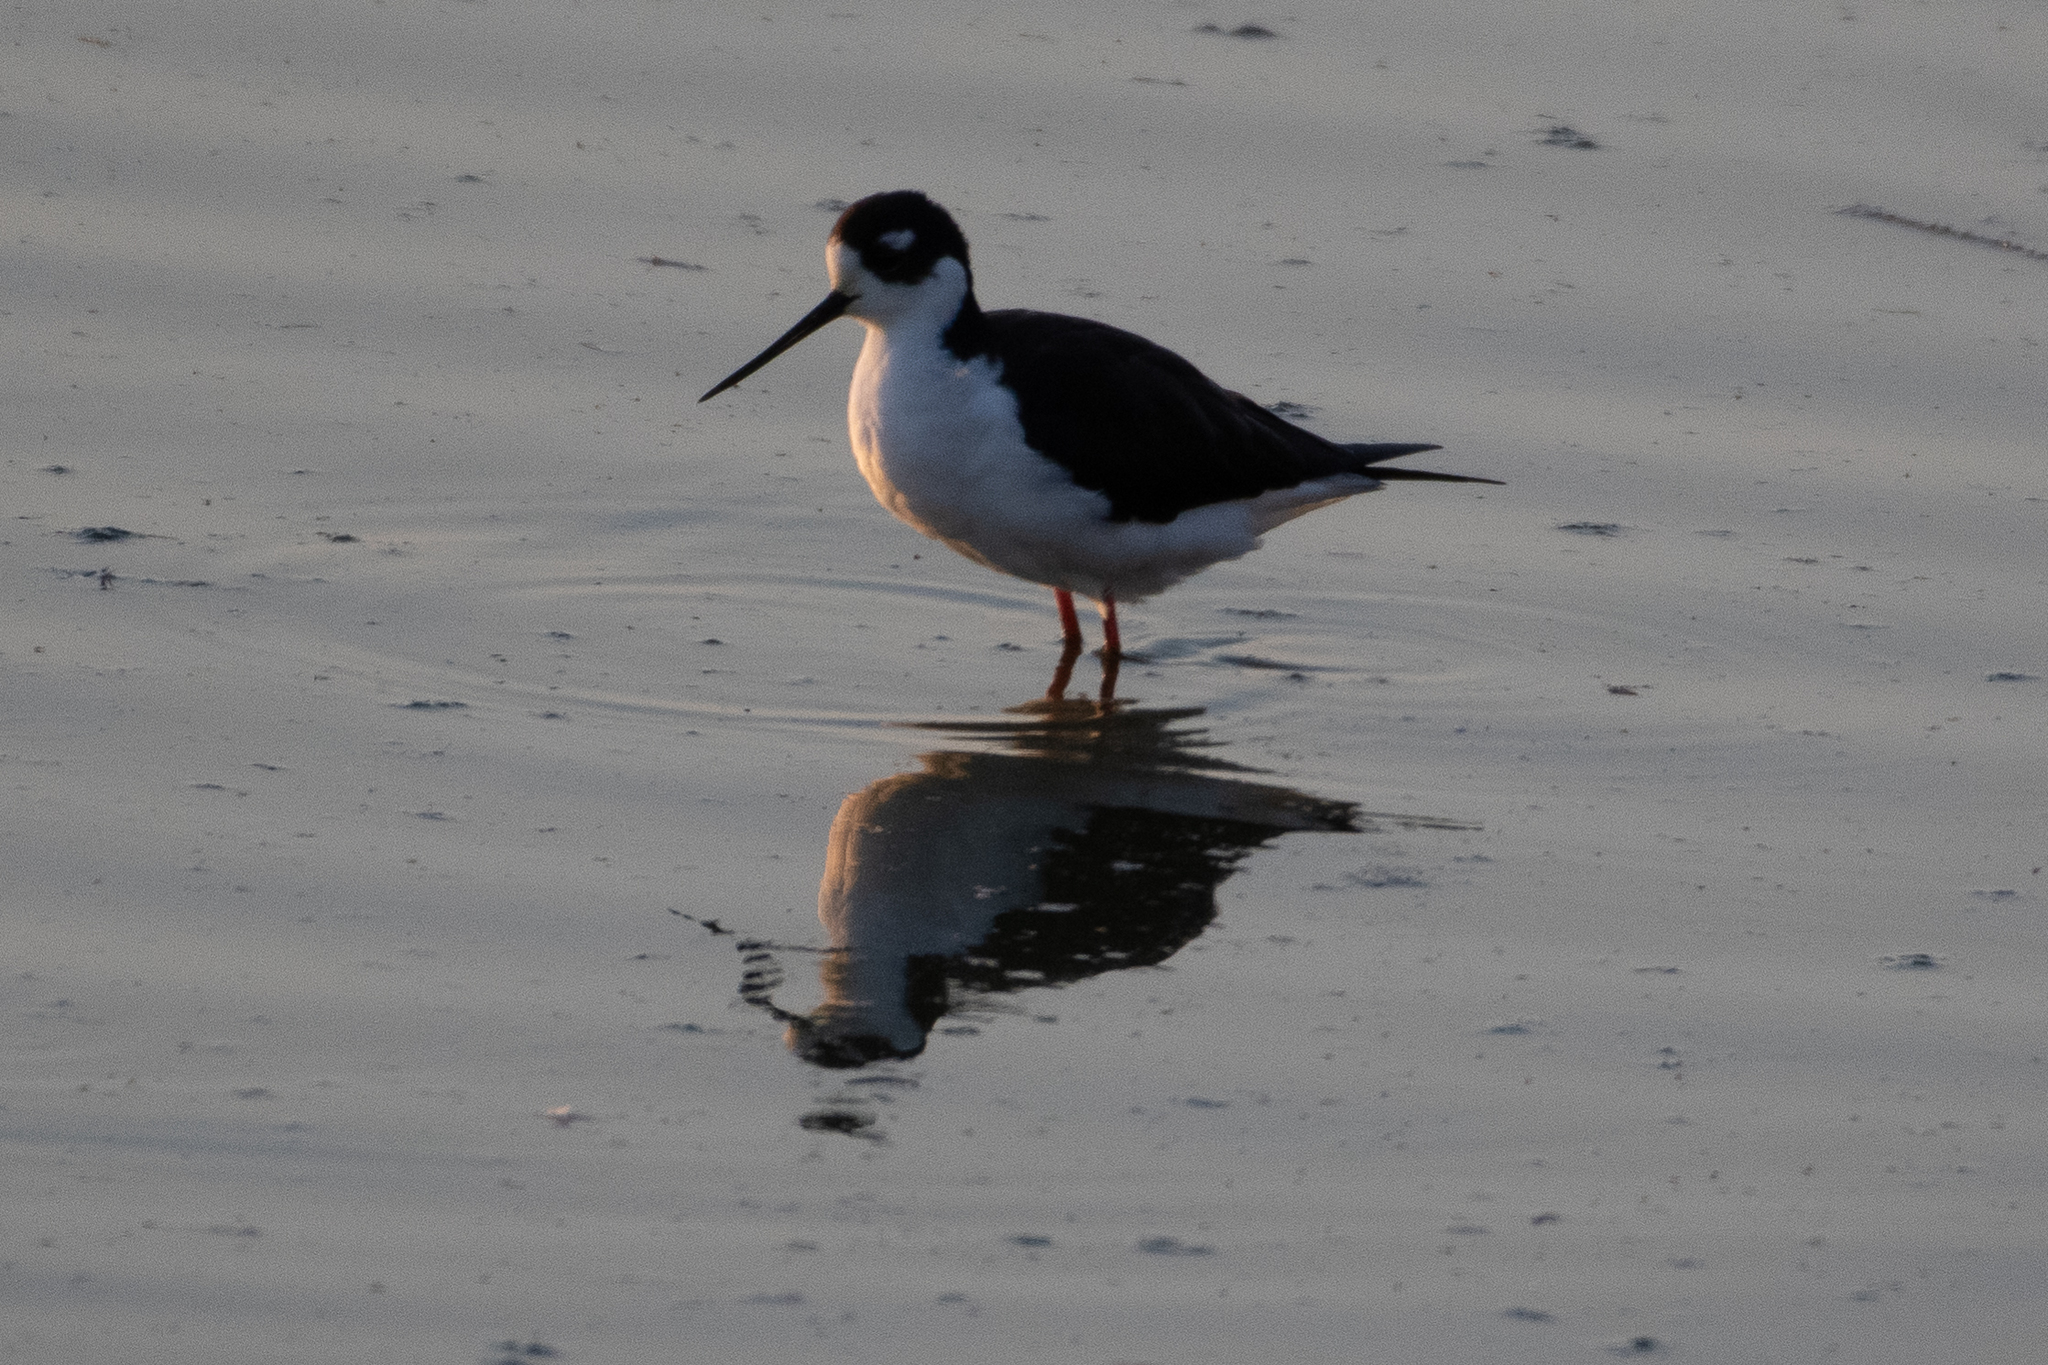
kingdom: Animalia
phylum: Chordata
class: Aves
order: Charadriiformes
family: Recurvirostridae
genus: Himantopus
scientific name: Himantopus mexicanus
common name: Black-necked stilt
